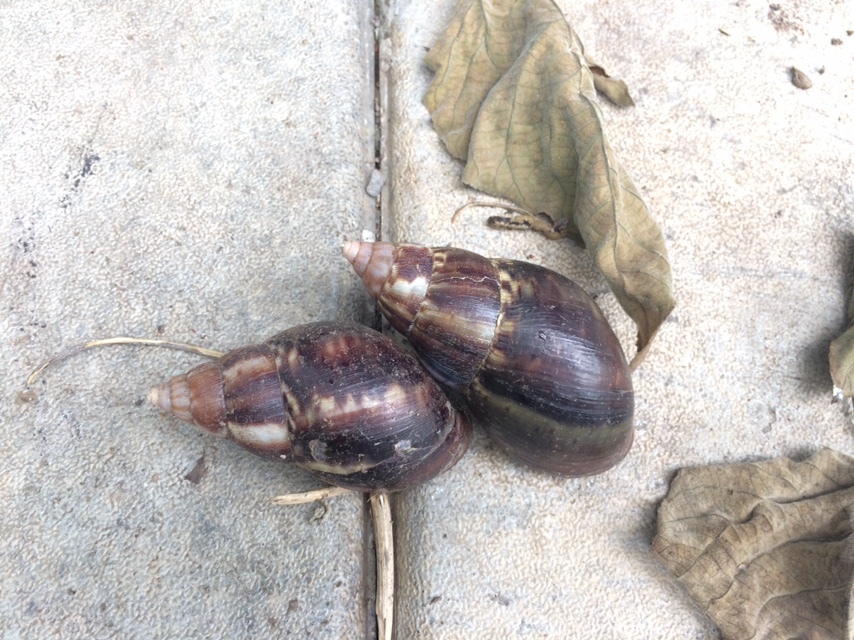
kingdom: Animalia
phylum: Mollusca
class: Gastropoda
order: Stylommatophora
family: Achatinidae
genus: Lissachatina
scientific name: Lissachatina fulica
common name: Giant african snail
